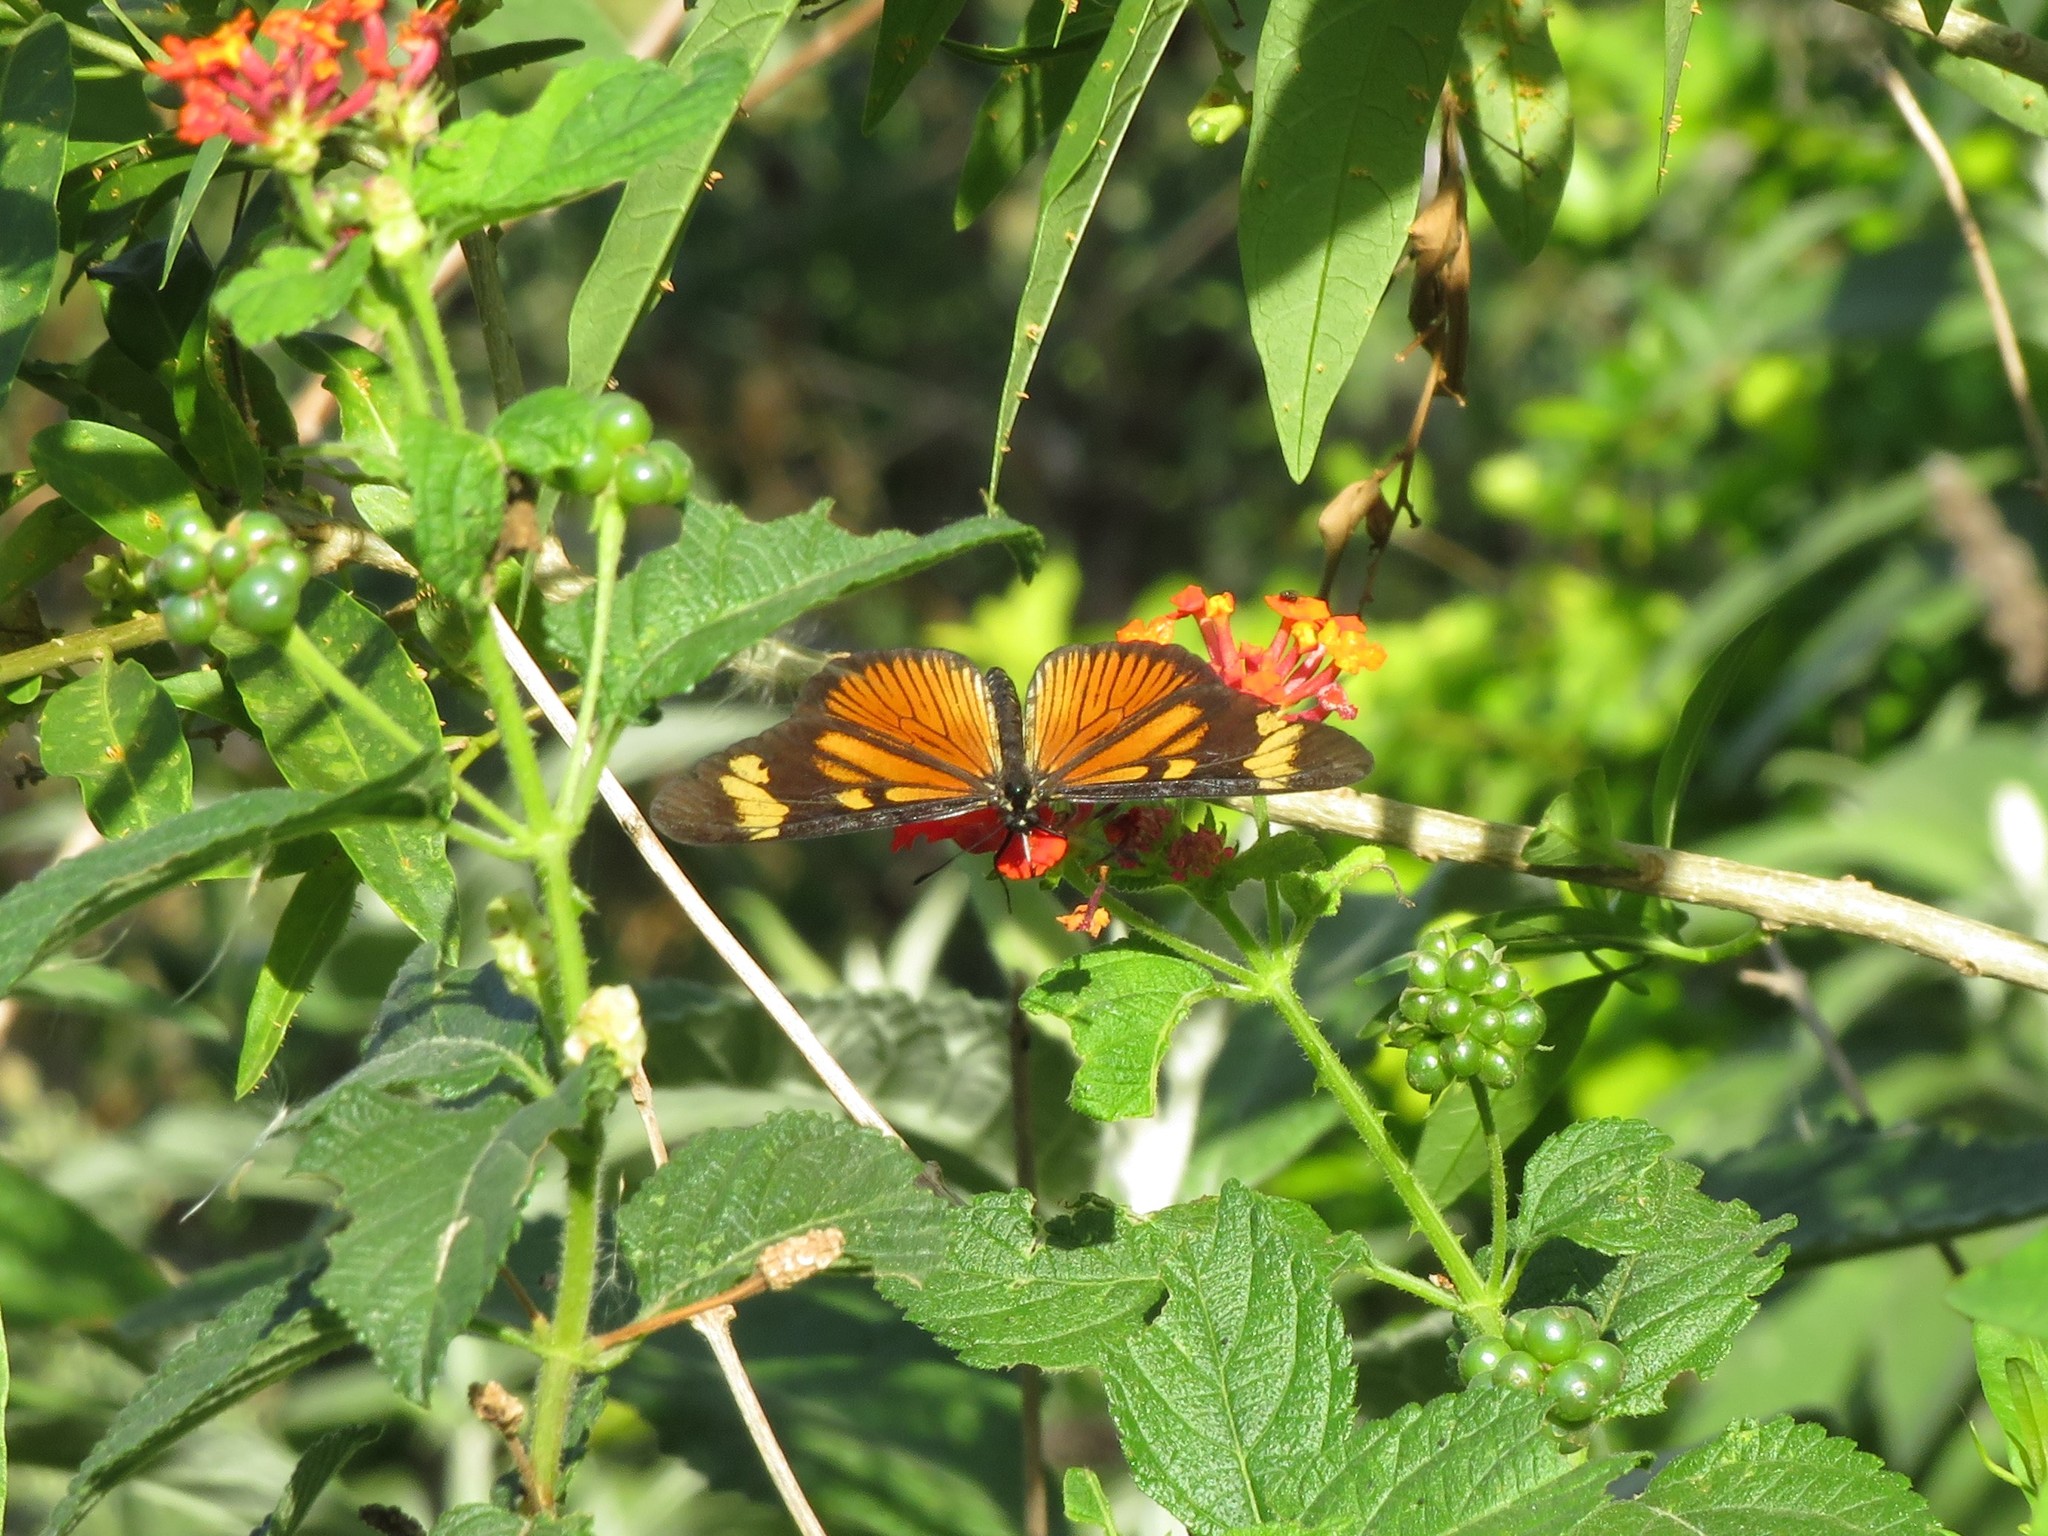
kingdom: Animalia
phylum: Arthropoda
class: Insecta
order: Lepidoptera
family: Nymphalidae
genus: Actinote
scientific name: Actinote pellenea
